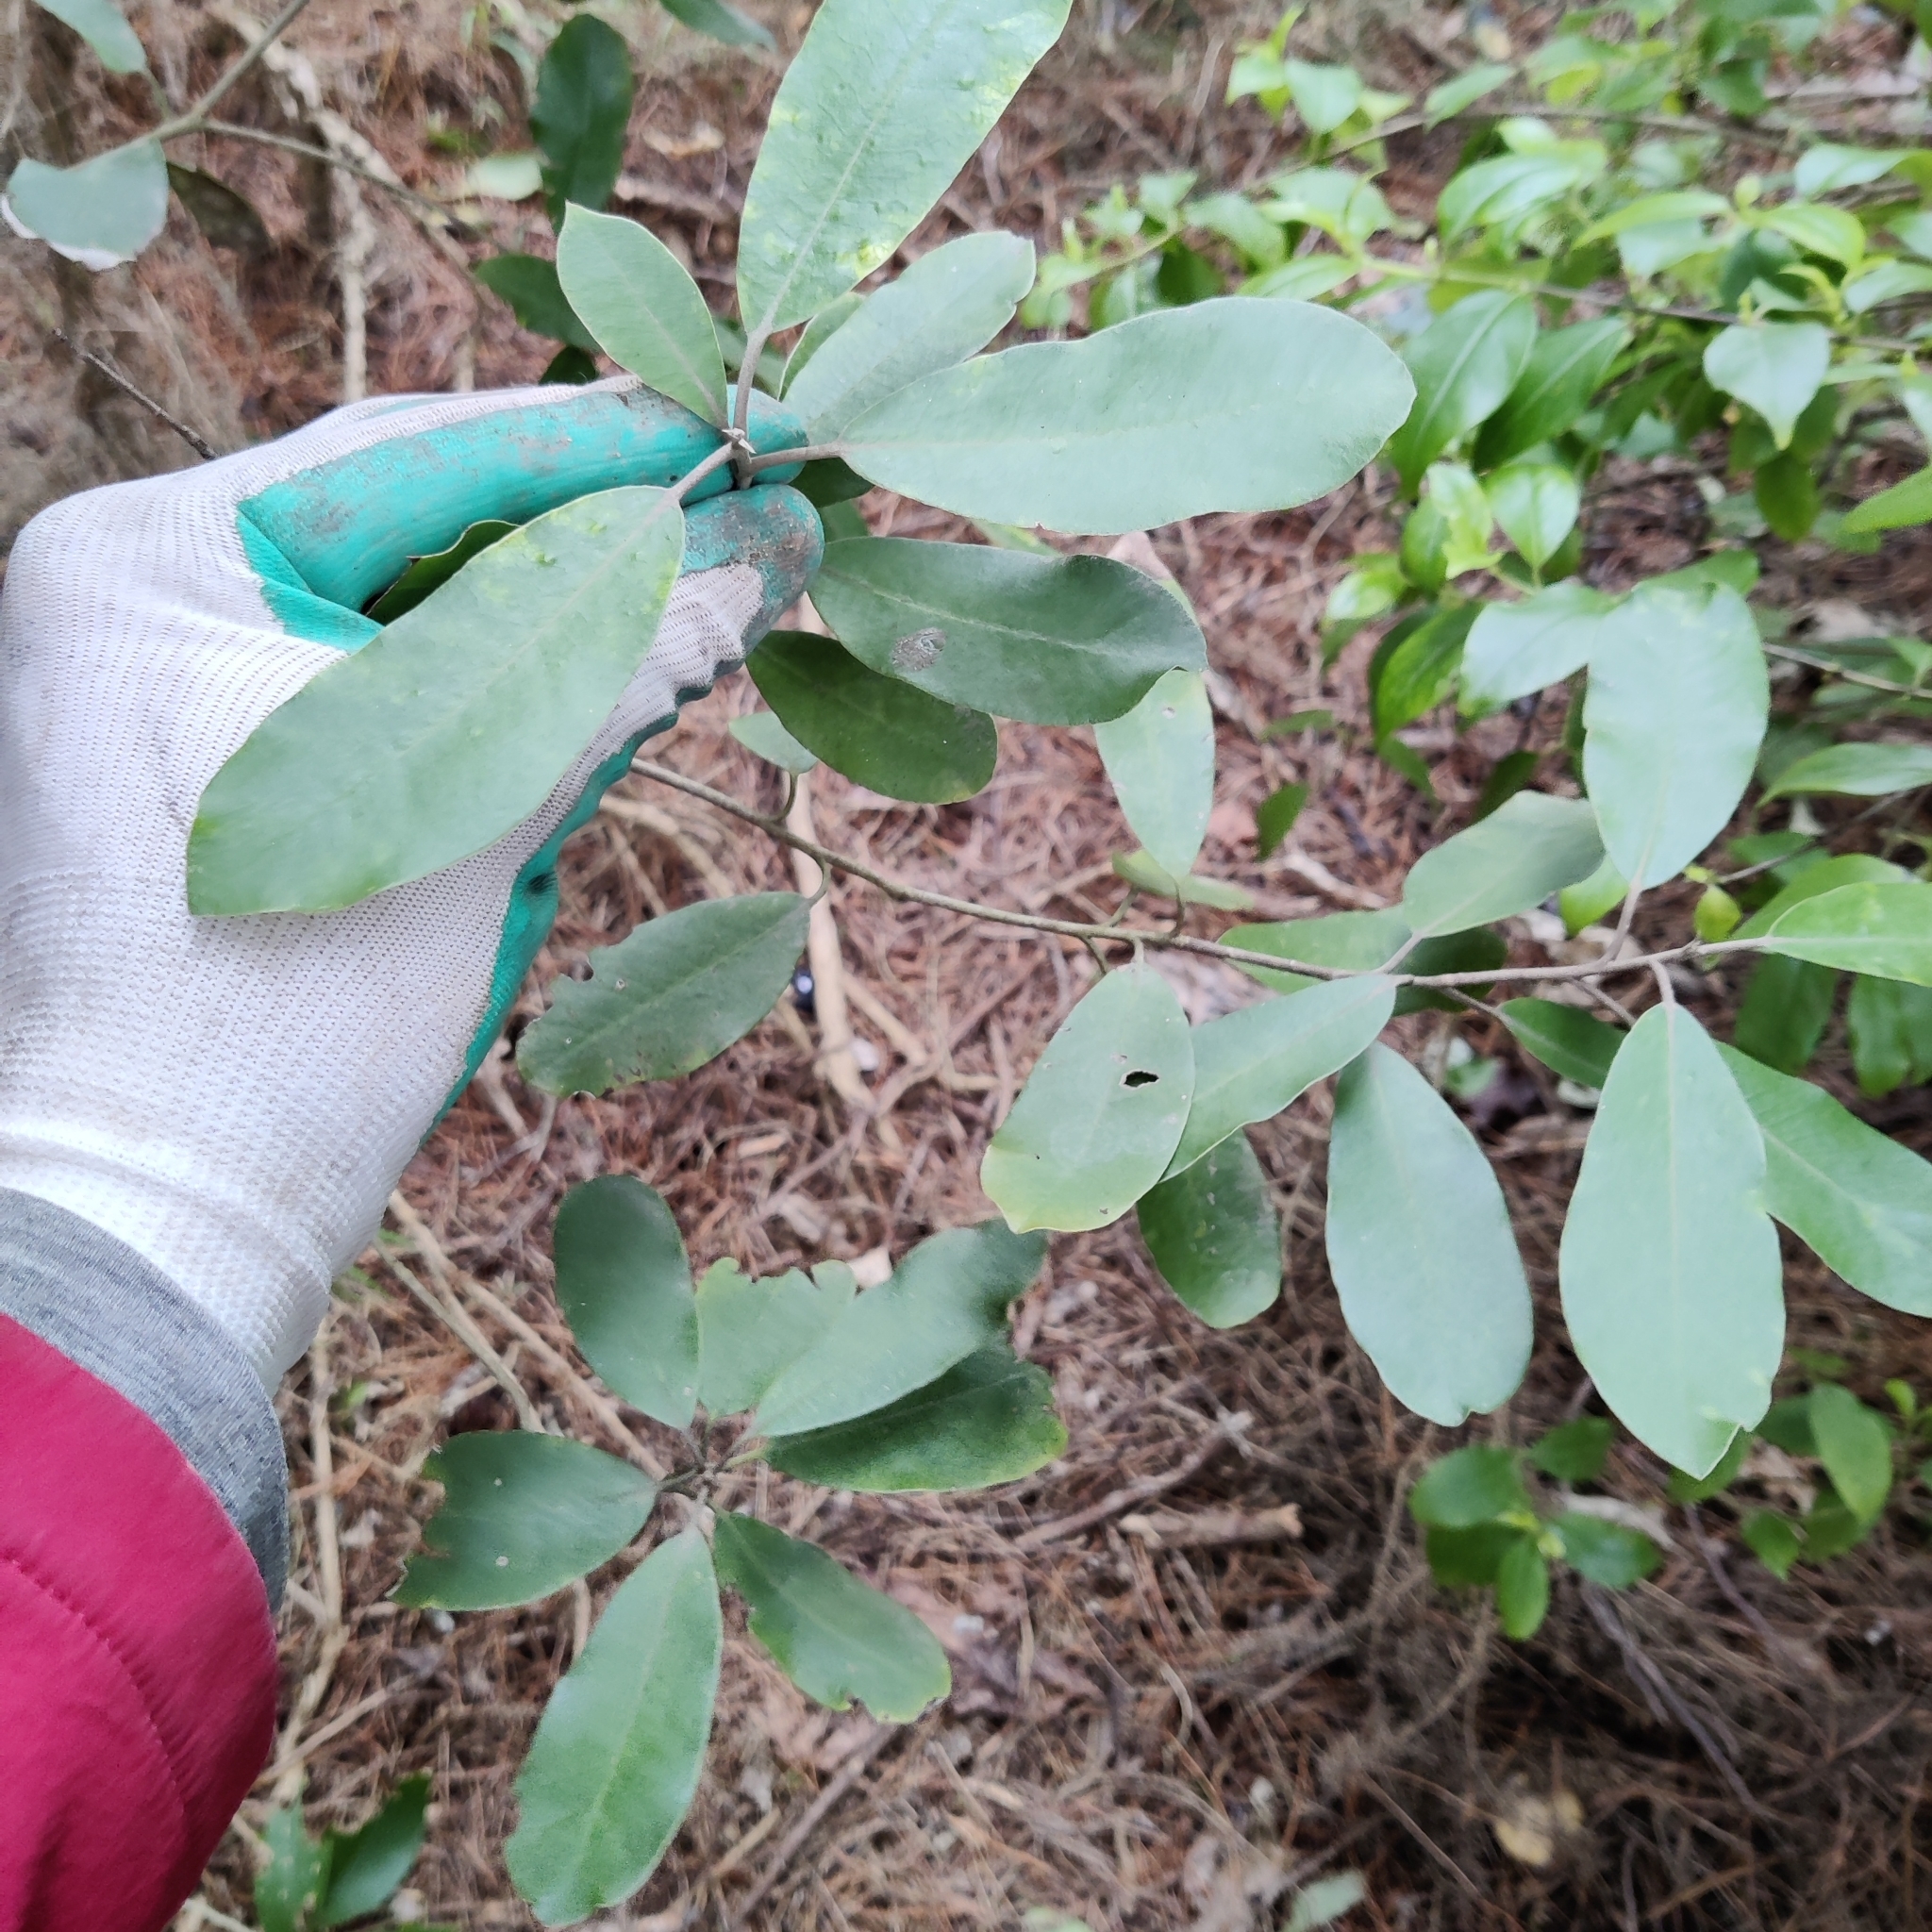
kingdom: Plantae
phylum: Tracheophyta
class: Magnoliopsida
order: Apiales
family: Pittosporaceae
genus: Pittosporum
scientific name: Pittosporum ralphii
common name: Ralph's desertwillow
